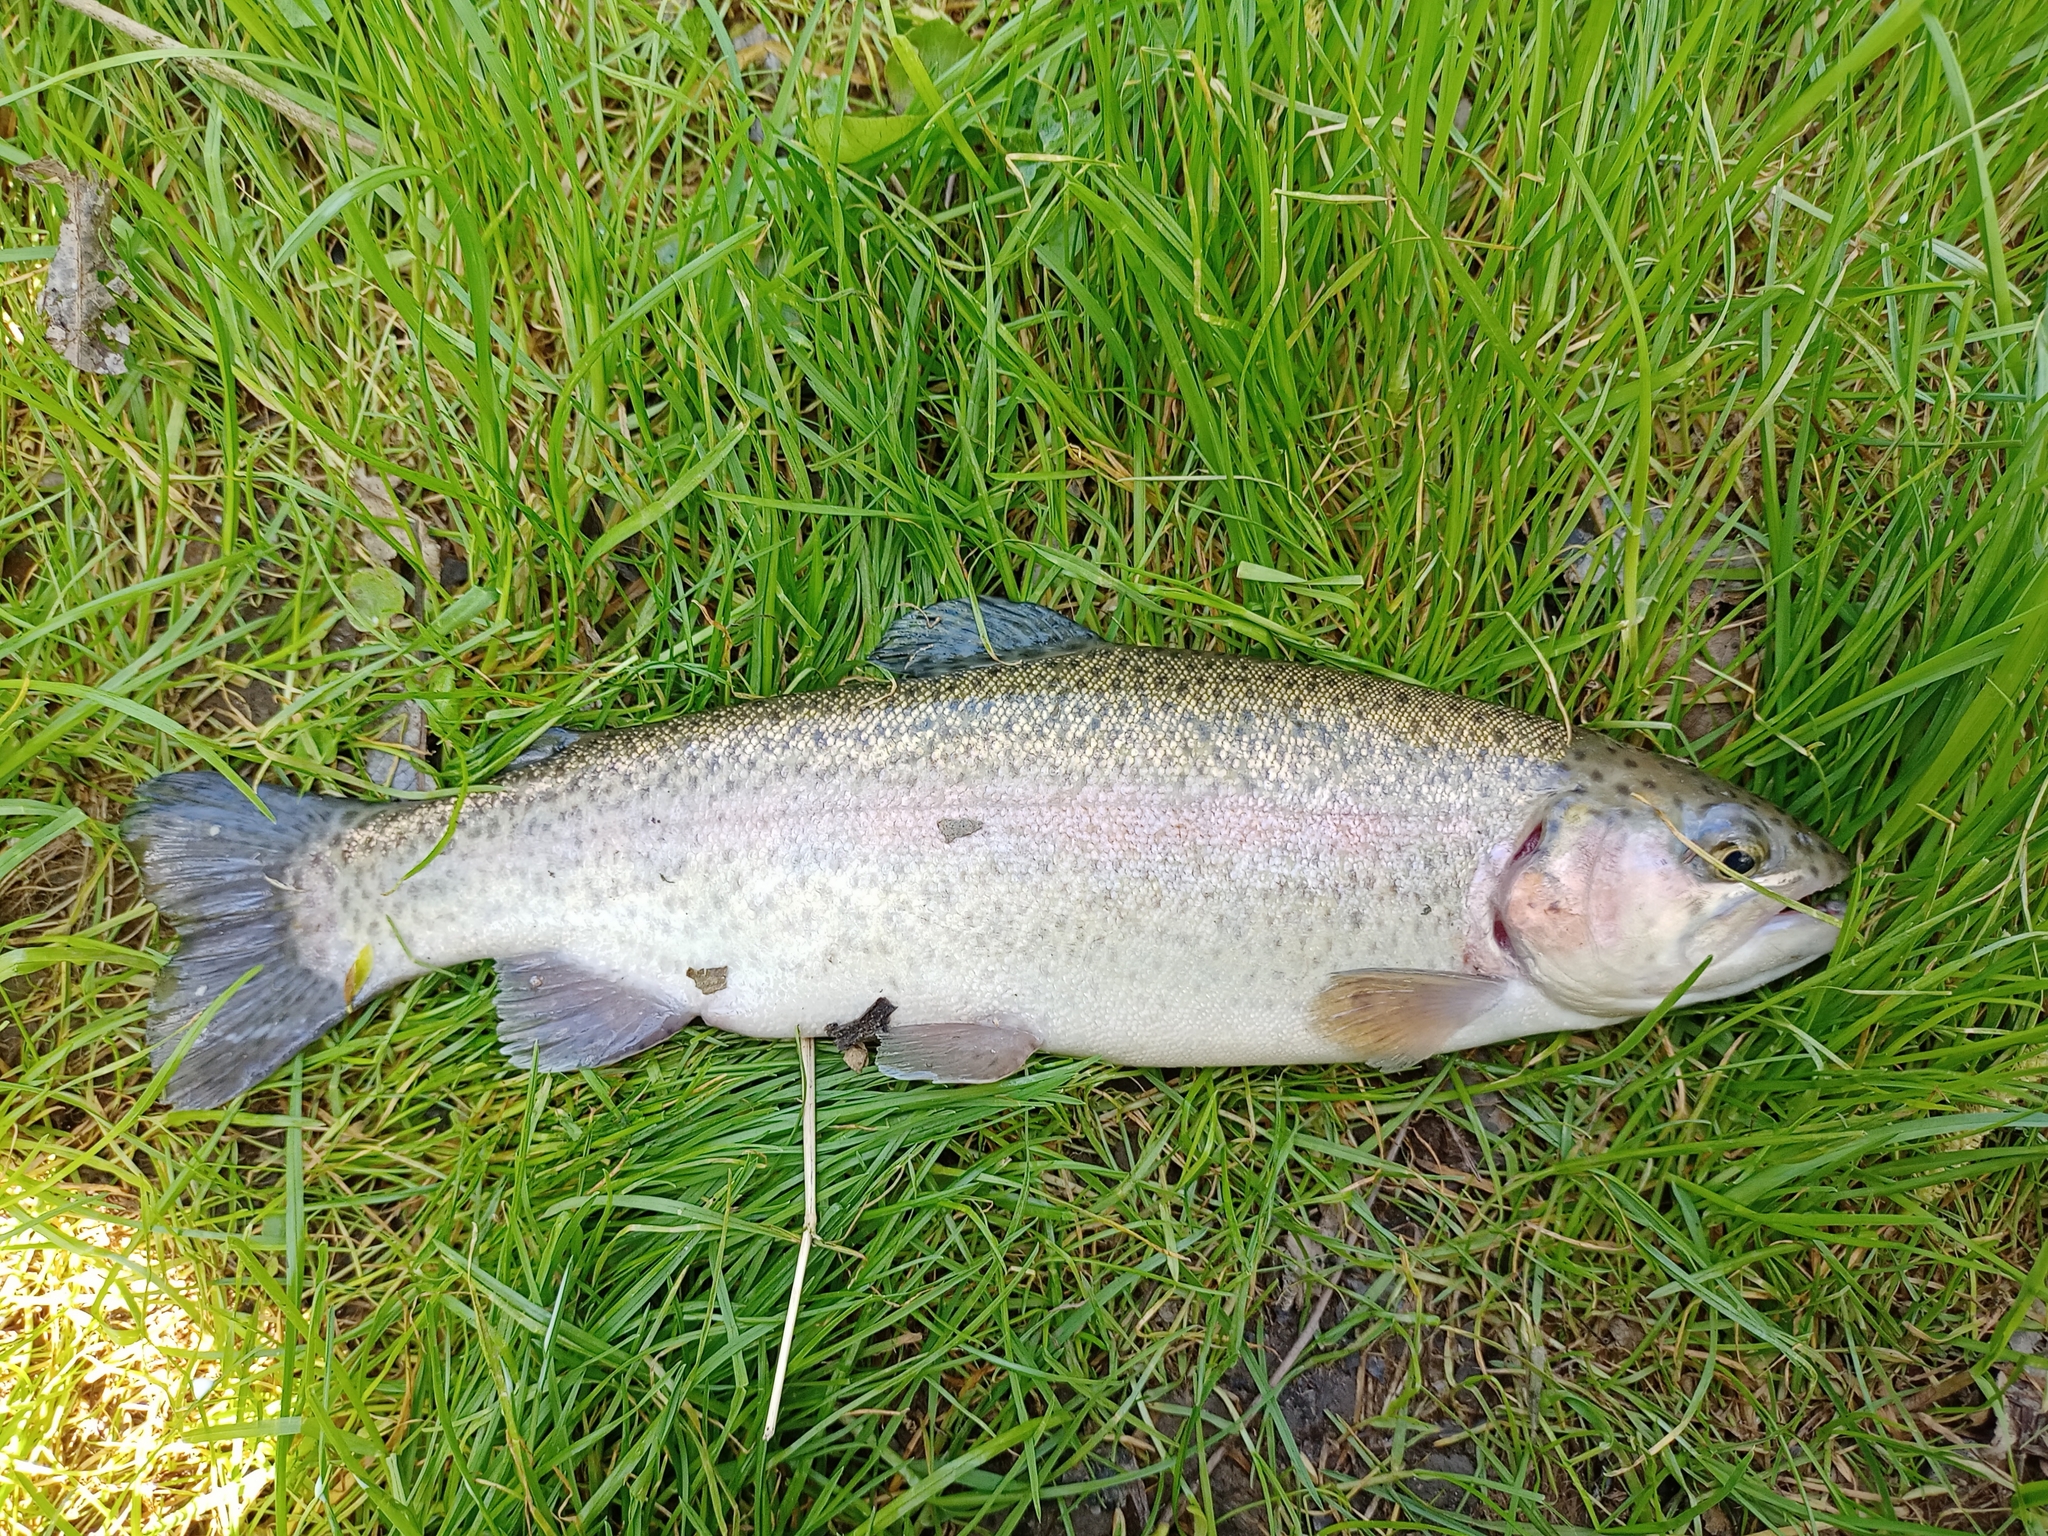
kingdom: Animalia
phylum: Chordata
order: Salmoniformes
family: Salmonidae
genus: Oncorhynchus
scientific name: Oncorhynchus mykiss
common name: Rainbow trout
